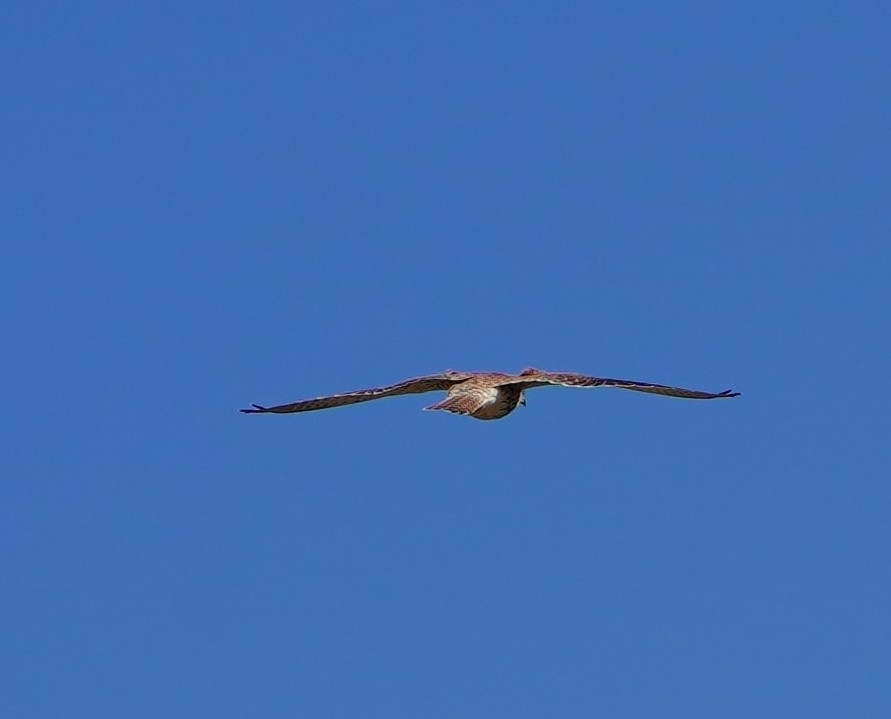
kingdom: Animalia
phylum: Chordata
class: Aves
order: Falconiformes
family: Falconidae
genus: Falco
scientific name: Falco tinnunculus
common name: Common kestrel
